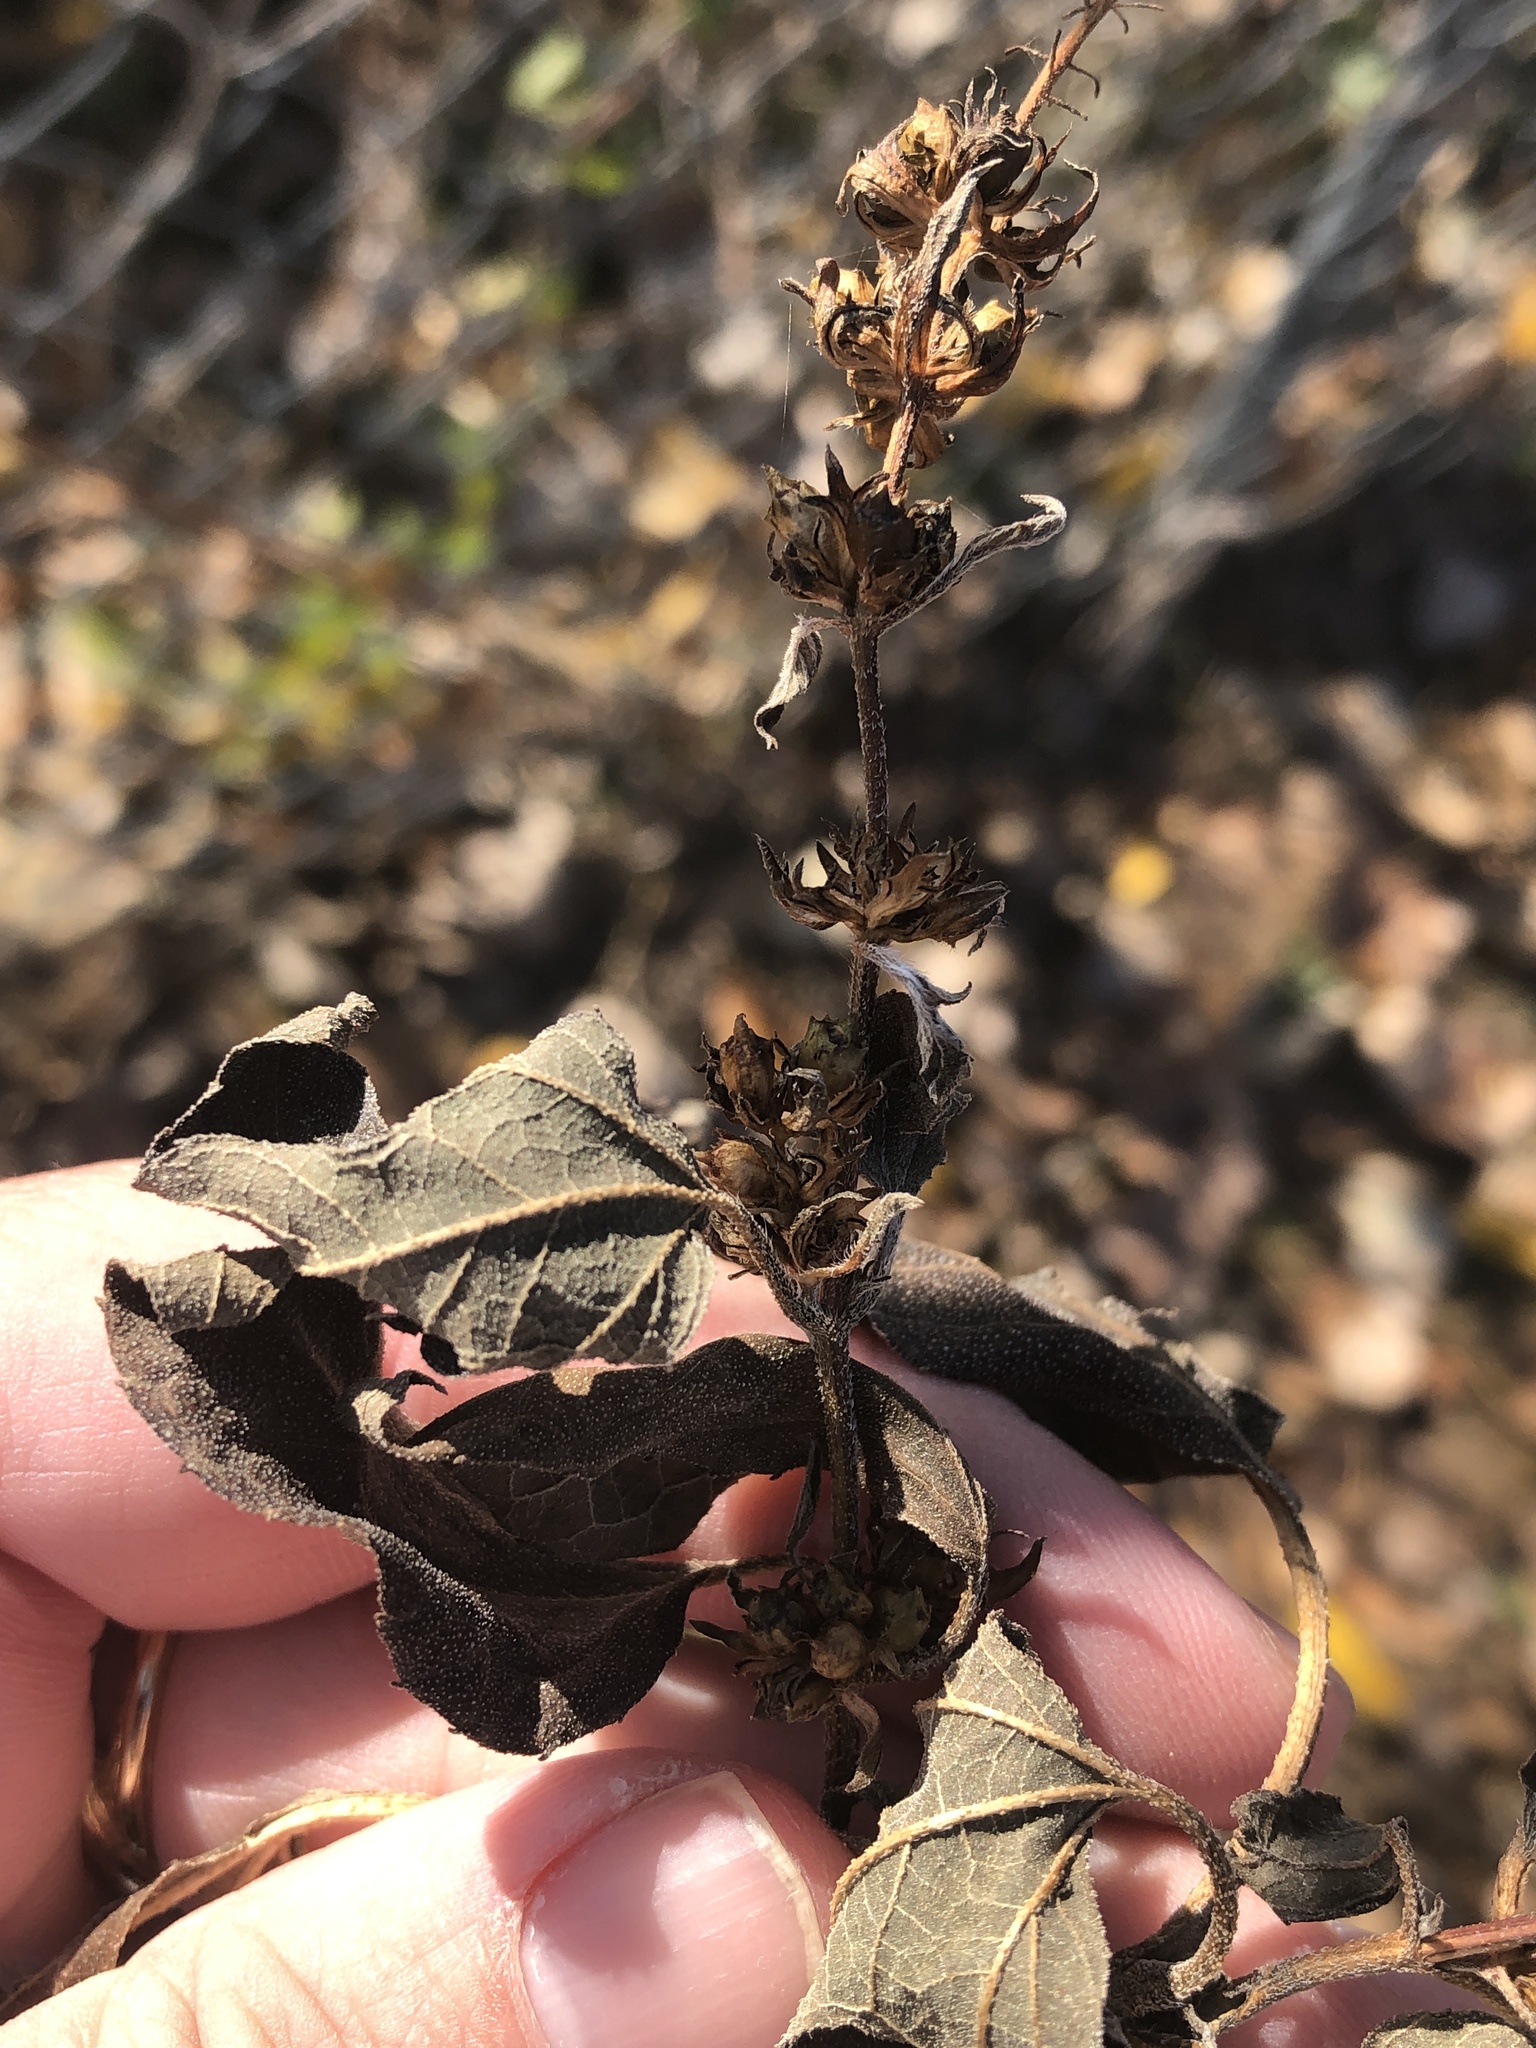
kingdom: Plantae
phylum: Tracheophyta
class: Magnoliopsida
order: Asterales
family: Asteraceae
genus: Ambrosia
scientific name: Ambrosia trifida
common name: Giant ragweed
